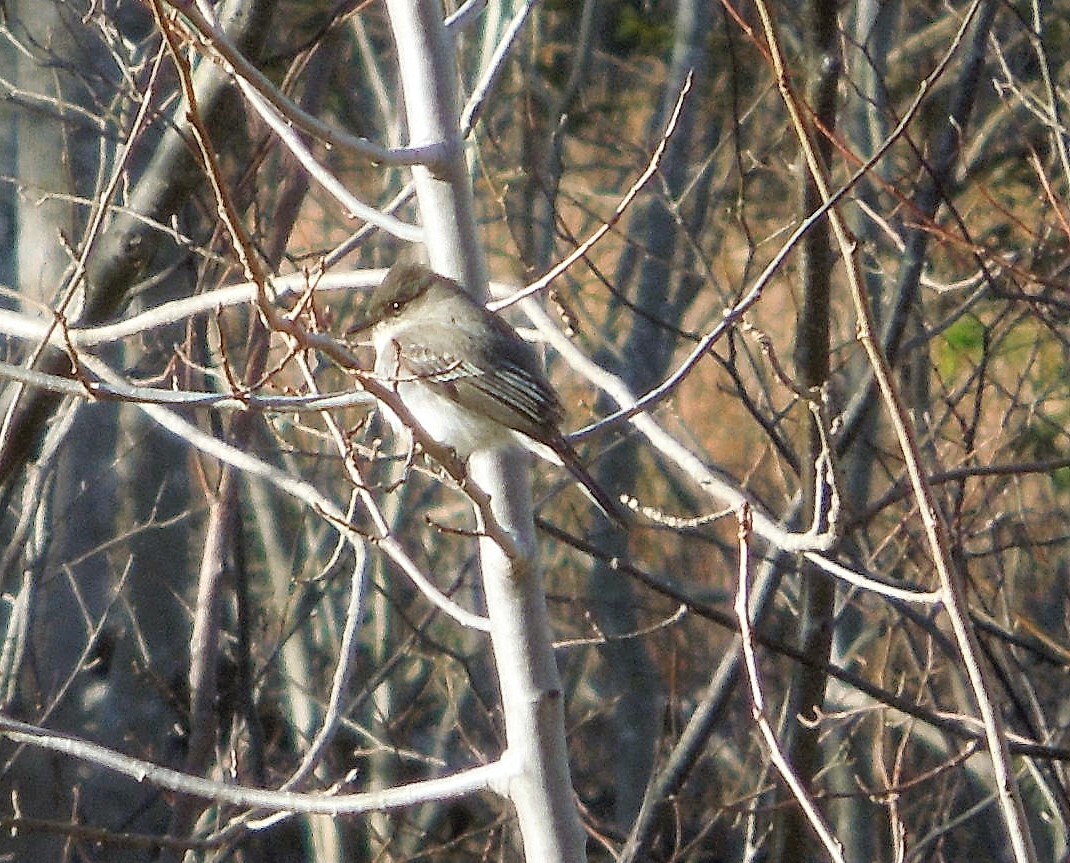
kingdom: Animalia
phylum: Chordata
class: Aves
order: Passeriformes
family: Tyrannidae
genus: Contopus
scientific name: Contopus virens
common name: Eastern wood-pewee
